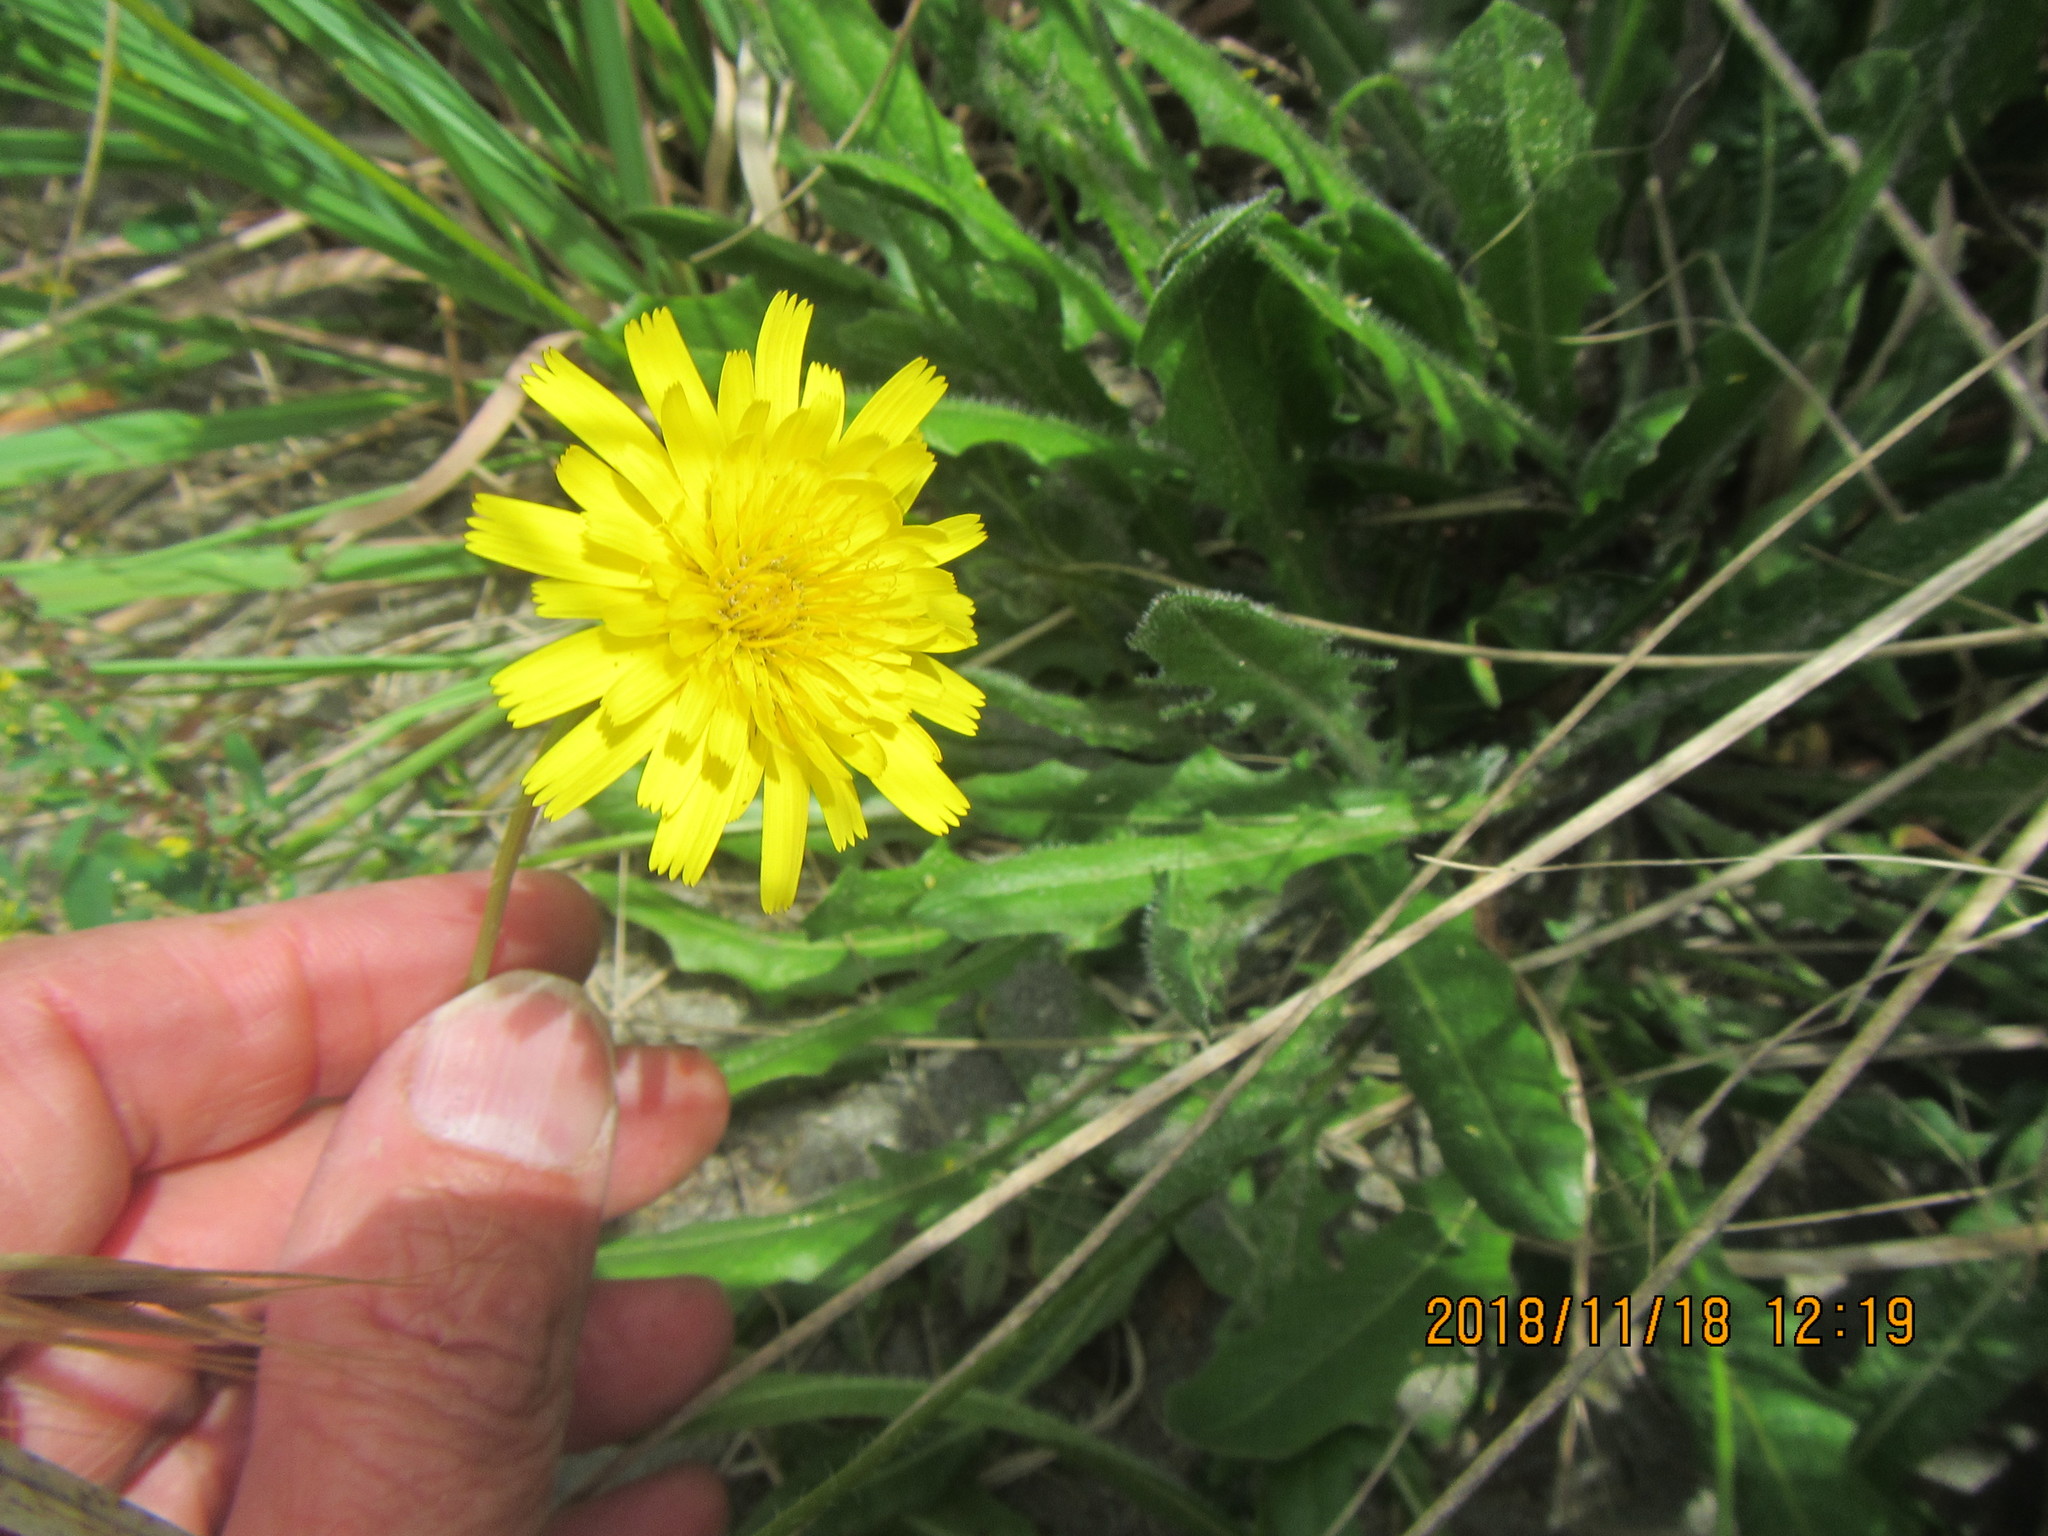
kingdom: Plantae
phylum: Tracheophyta
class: Magnoliopsida
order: Asterales
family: Asteraceae
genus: Hypochaeris
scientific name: Hypochaeris radicata
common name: Flatweed
